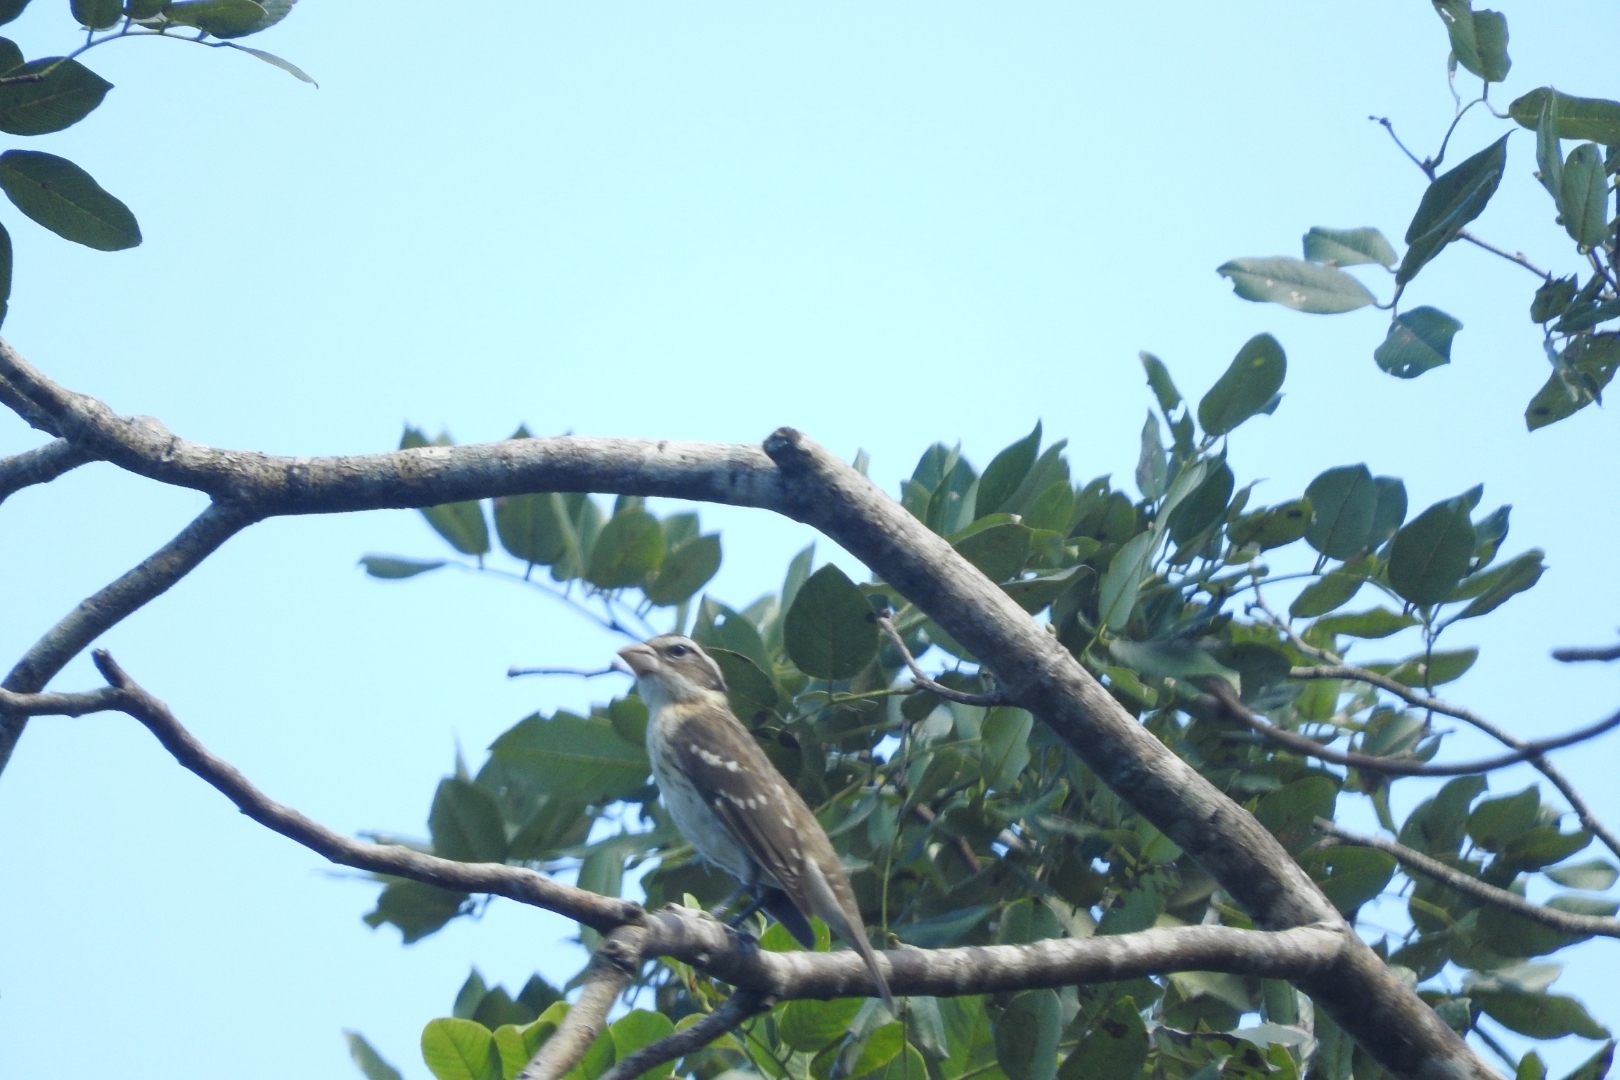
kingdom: Animalia
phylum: Chordata
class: Aves
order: Passeriformes
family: Cardinalidae
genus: Pheucticus
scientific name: Pheucticus ludovicianus
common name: Rose-breasted grosbeak
